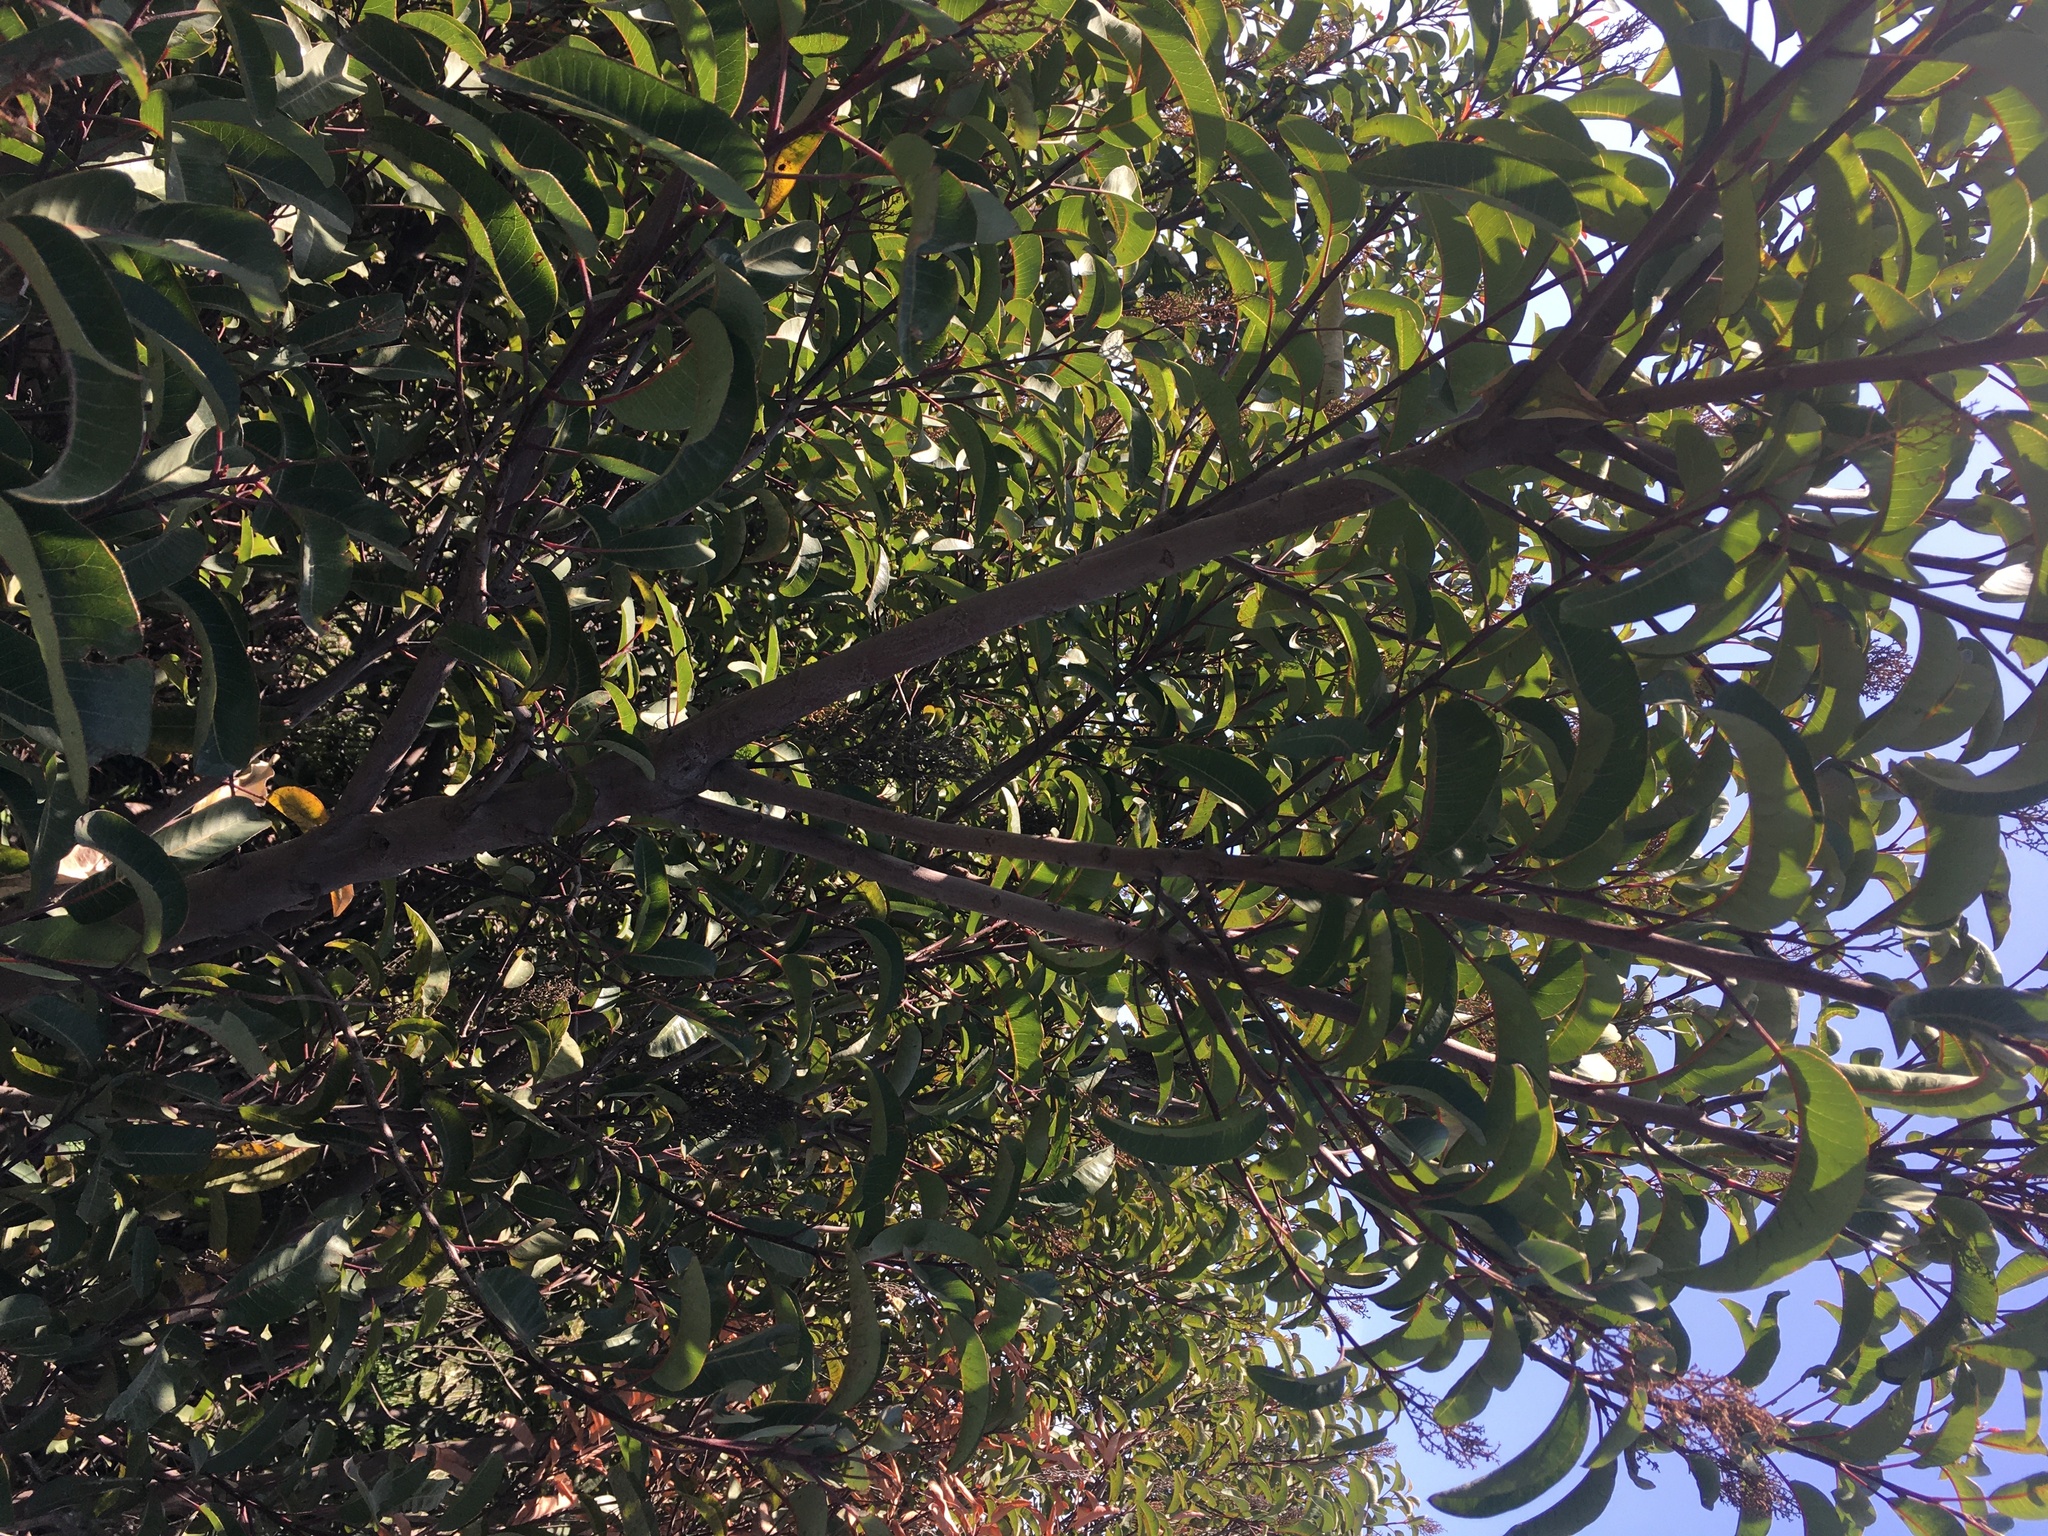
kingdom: Plantae
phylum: Tracheophyta
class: Magnoliopsida
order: Sapindales
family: Anacardiaceae
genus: Malosma
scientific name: Malosma laurina
